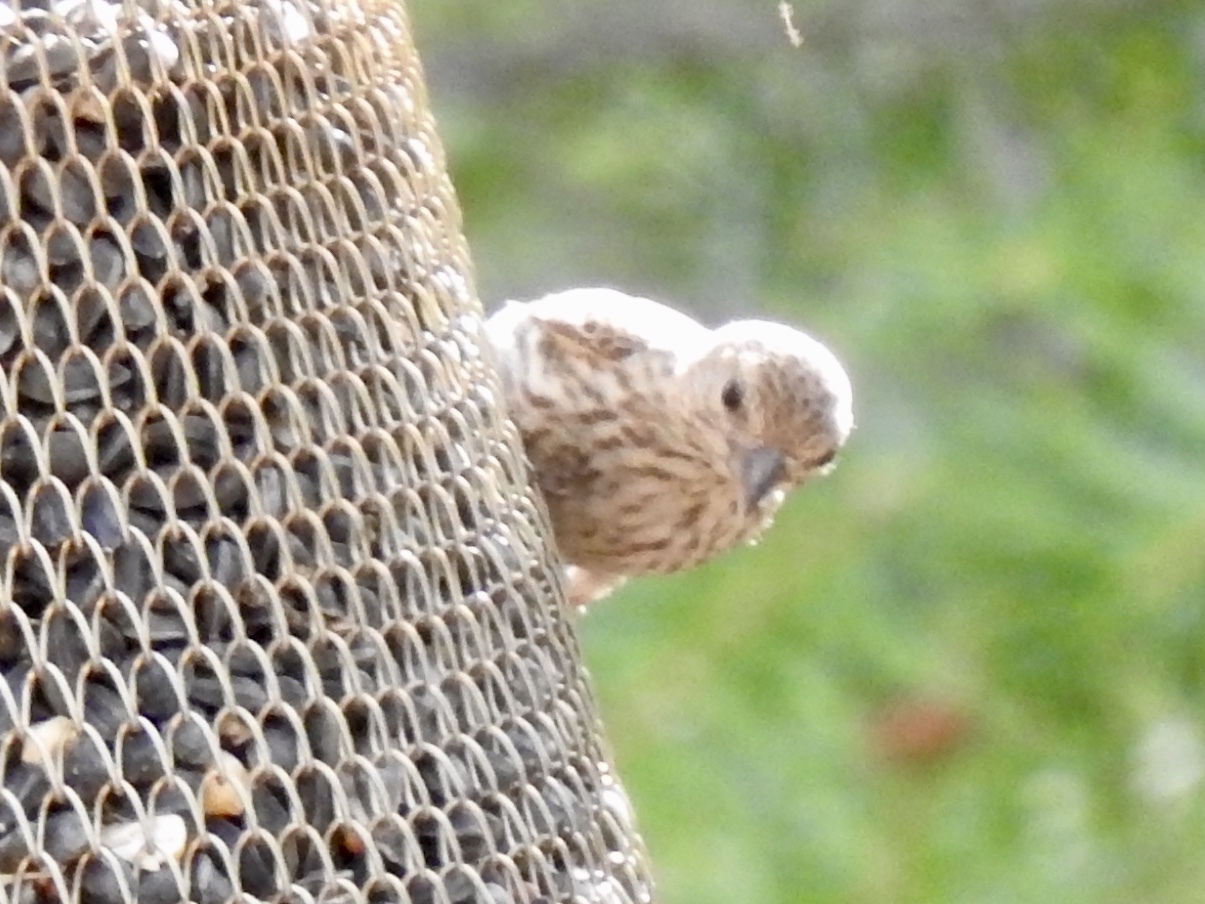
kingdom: Animalia
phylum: Chordata
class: Aves
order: Passeriformes
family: Fringillidae
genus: Spinus
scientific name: Spinus pinus
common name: Pine siskin
